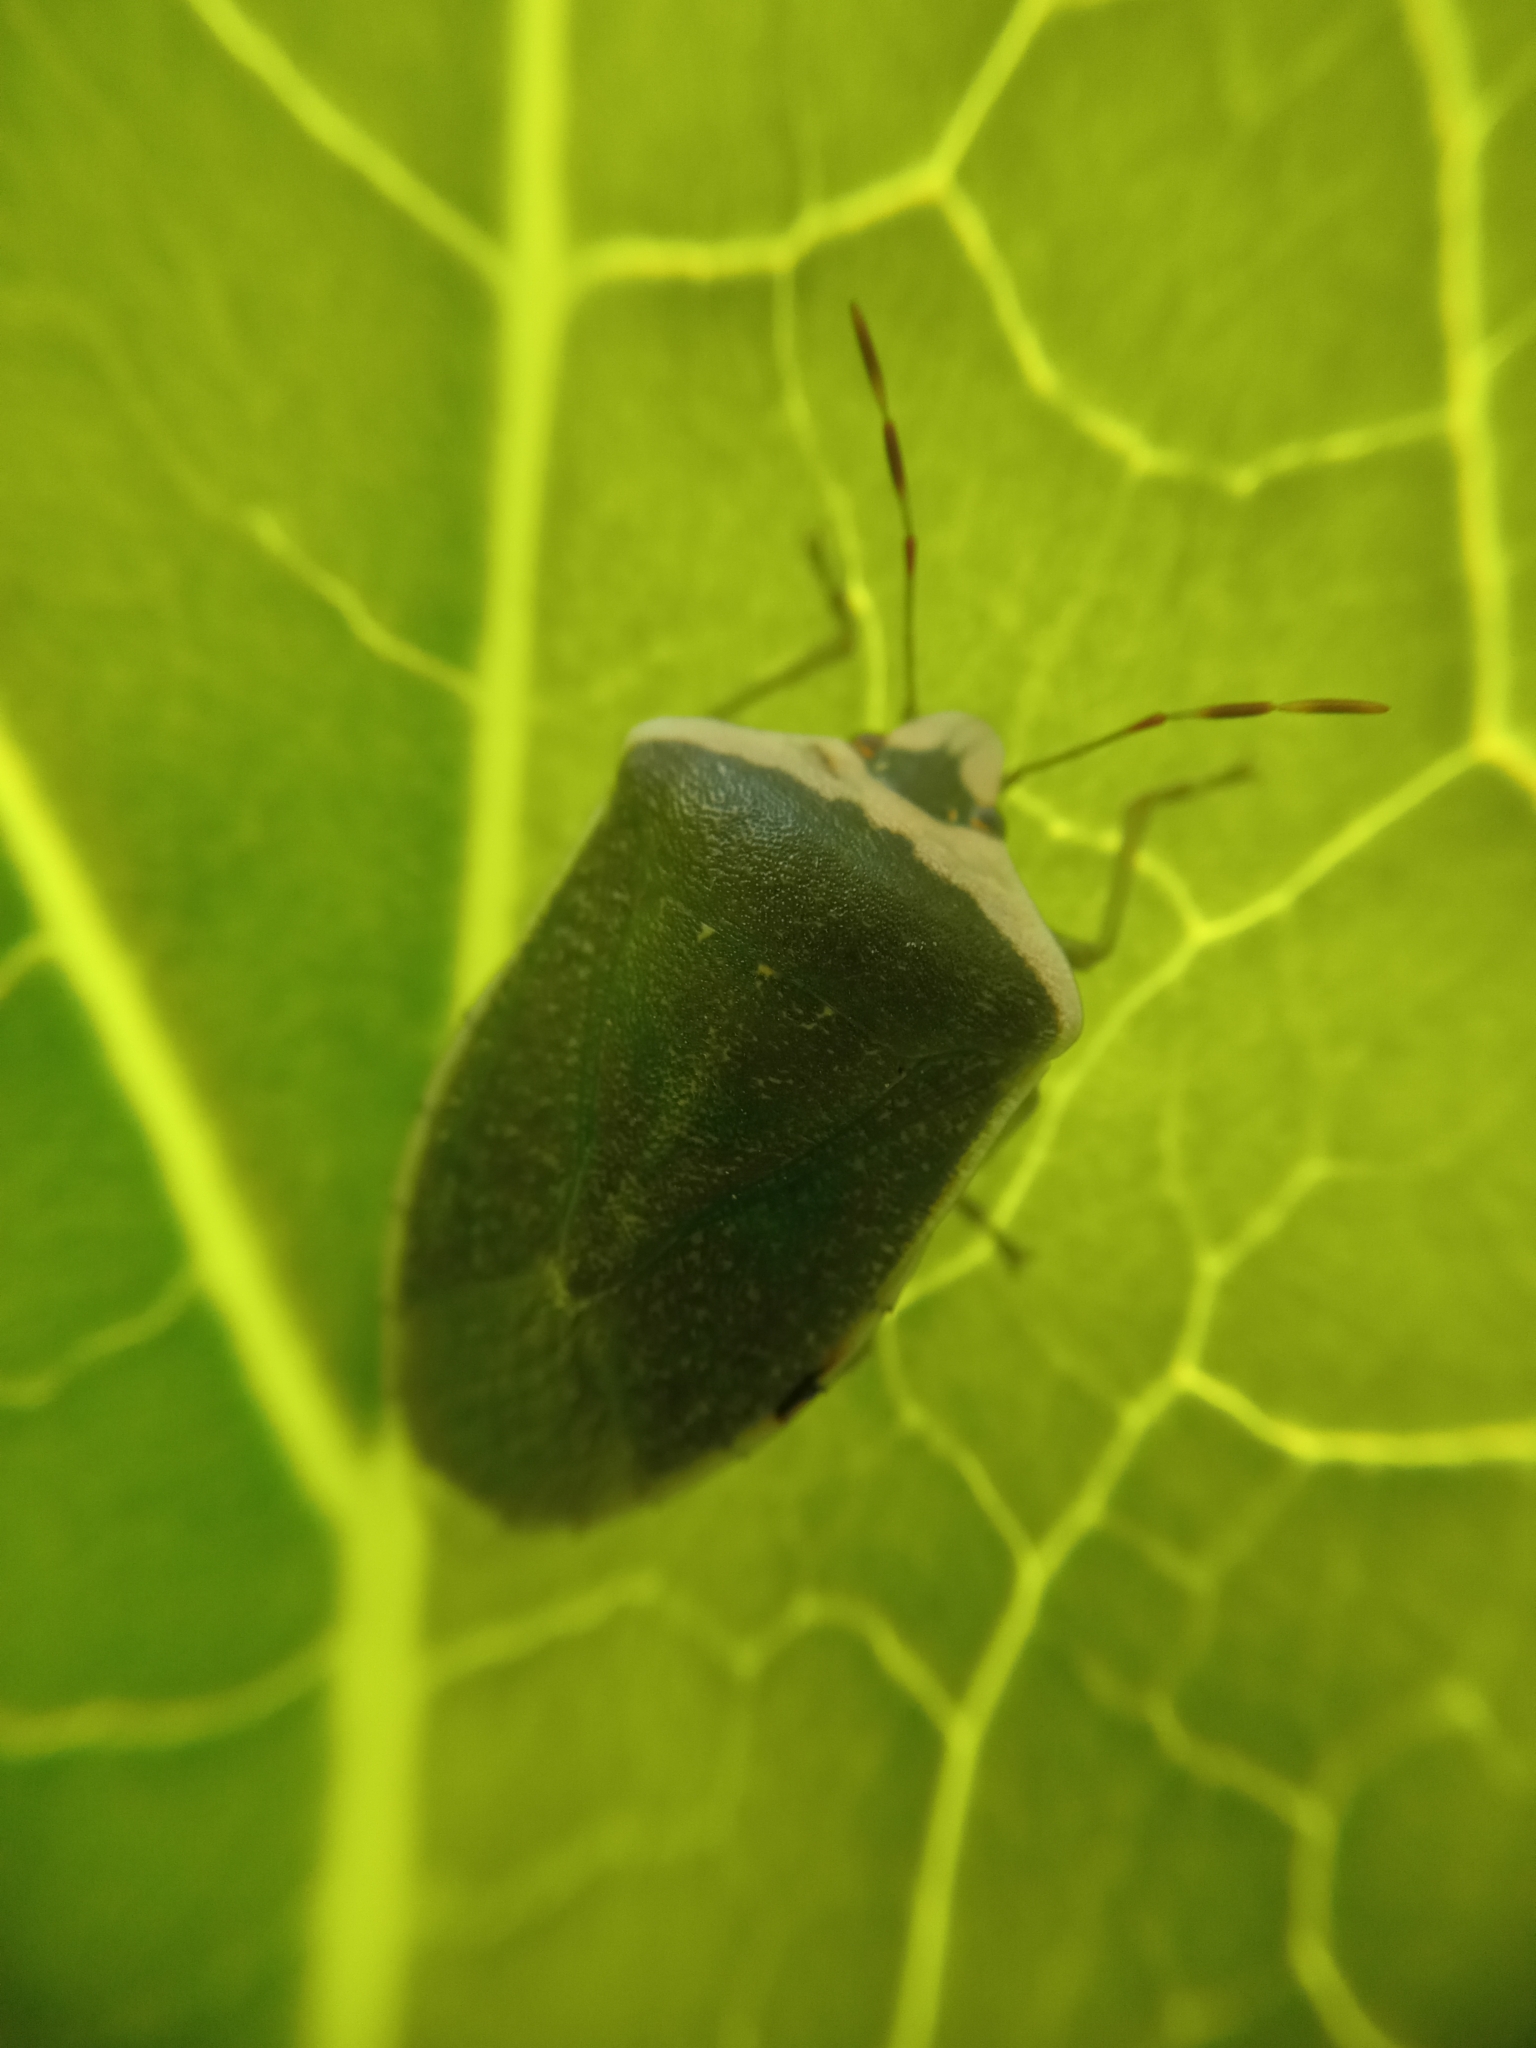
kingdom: Animalia
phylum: Arthropoda
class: Insecta
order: Hemiptera
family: Pentatomidae
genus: Nezara
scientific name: Nezara viridula
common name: Southern green stink bug
